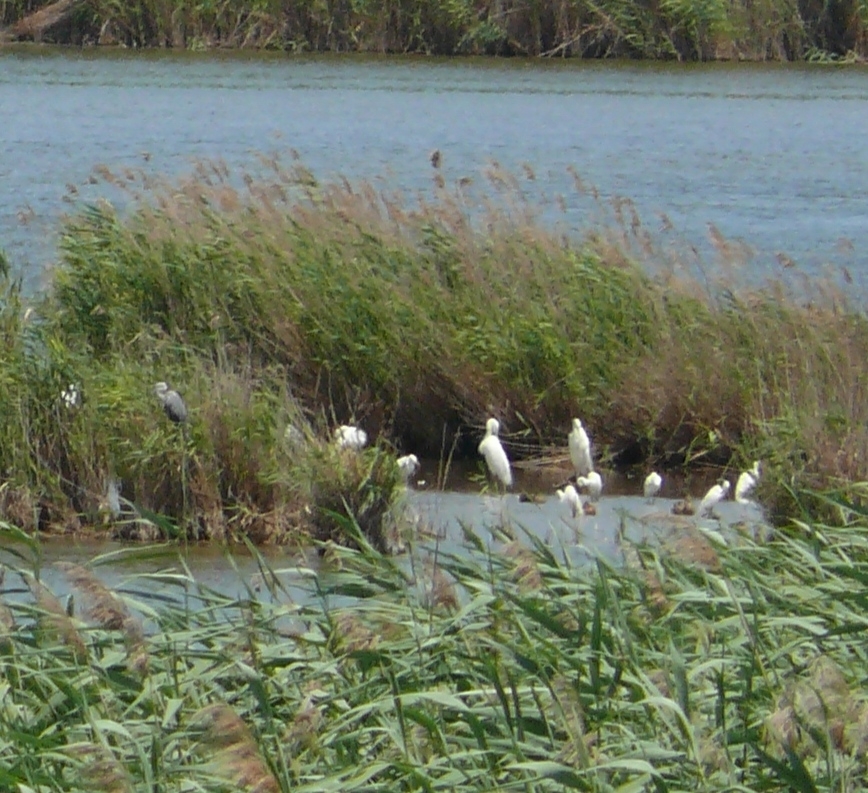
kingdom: Animalia
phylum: Chordata
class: Aves
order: Pelecaniformes
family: Ardeidae
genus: Egretta
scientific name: Egretta garzetta
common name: Little egret
